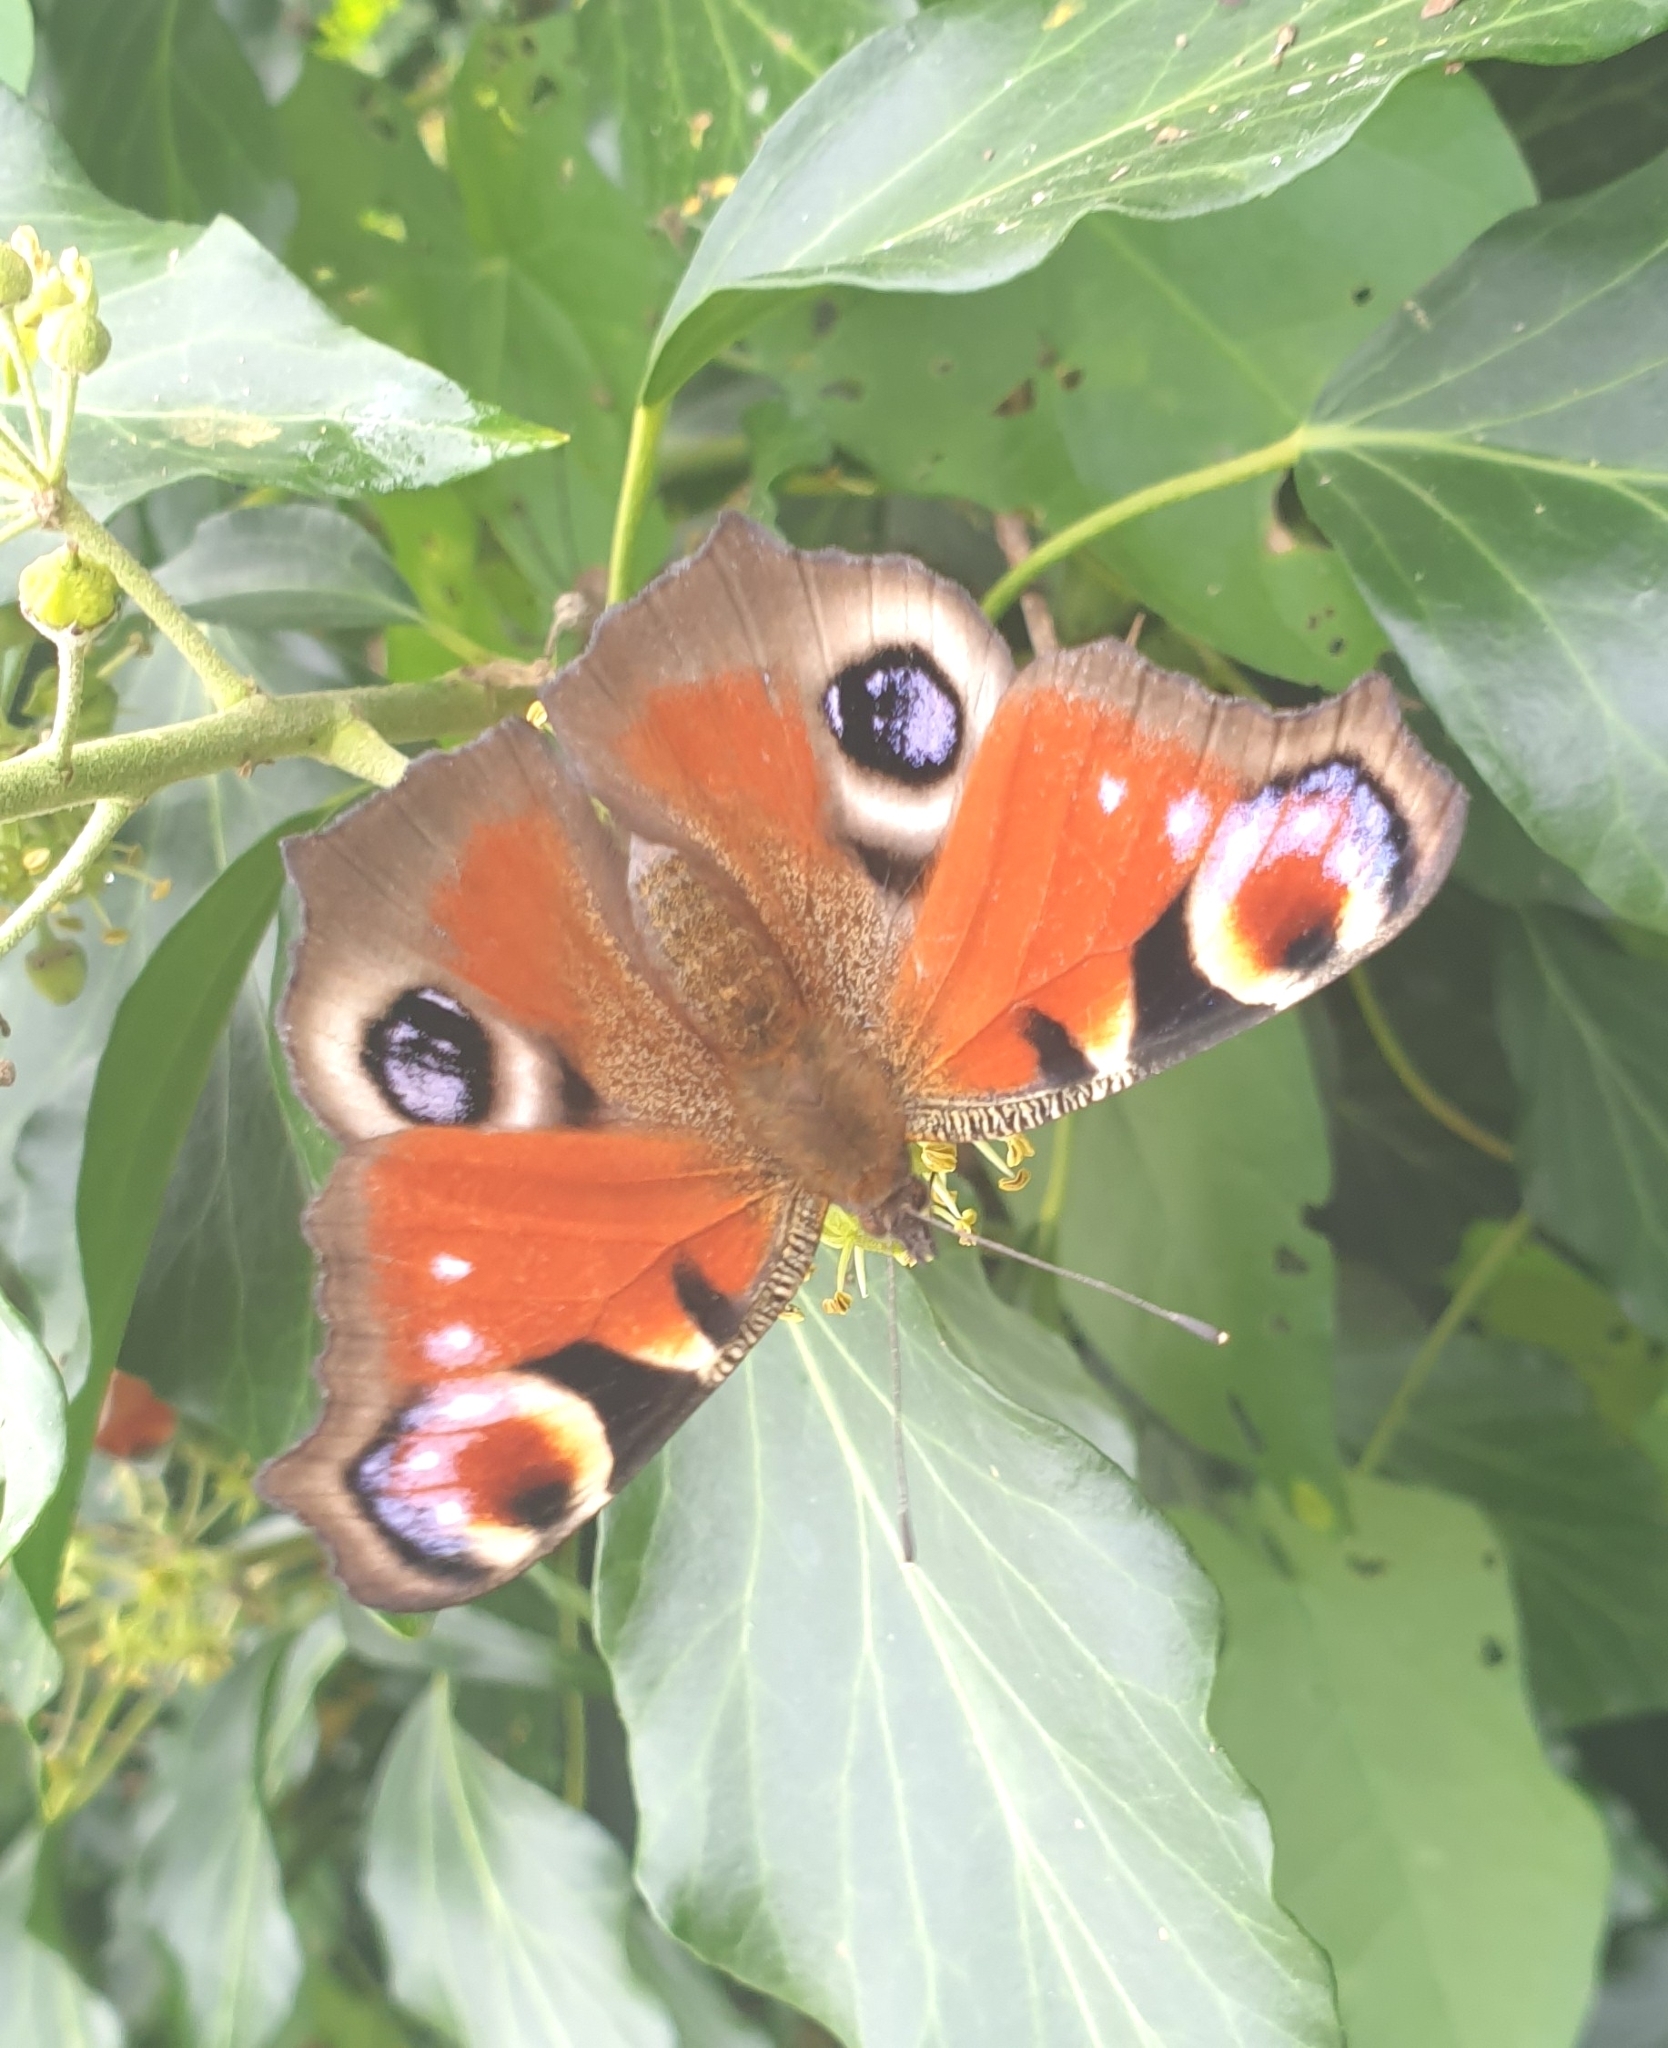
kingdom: Animalia
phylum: Arthropoda
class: Insecta
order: Lepidoptera
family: Nymphalidae
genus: Aglais
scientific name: Aglais io
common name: Peacock
